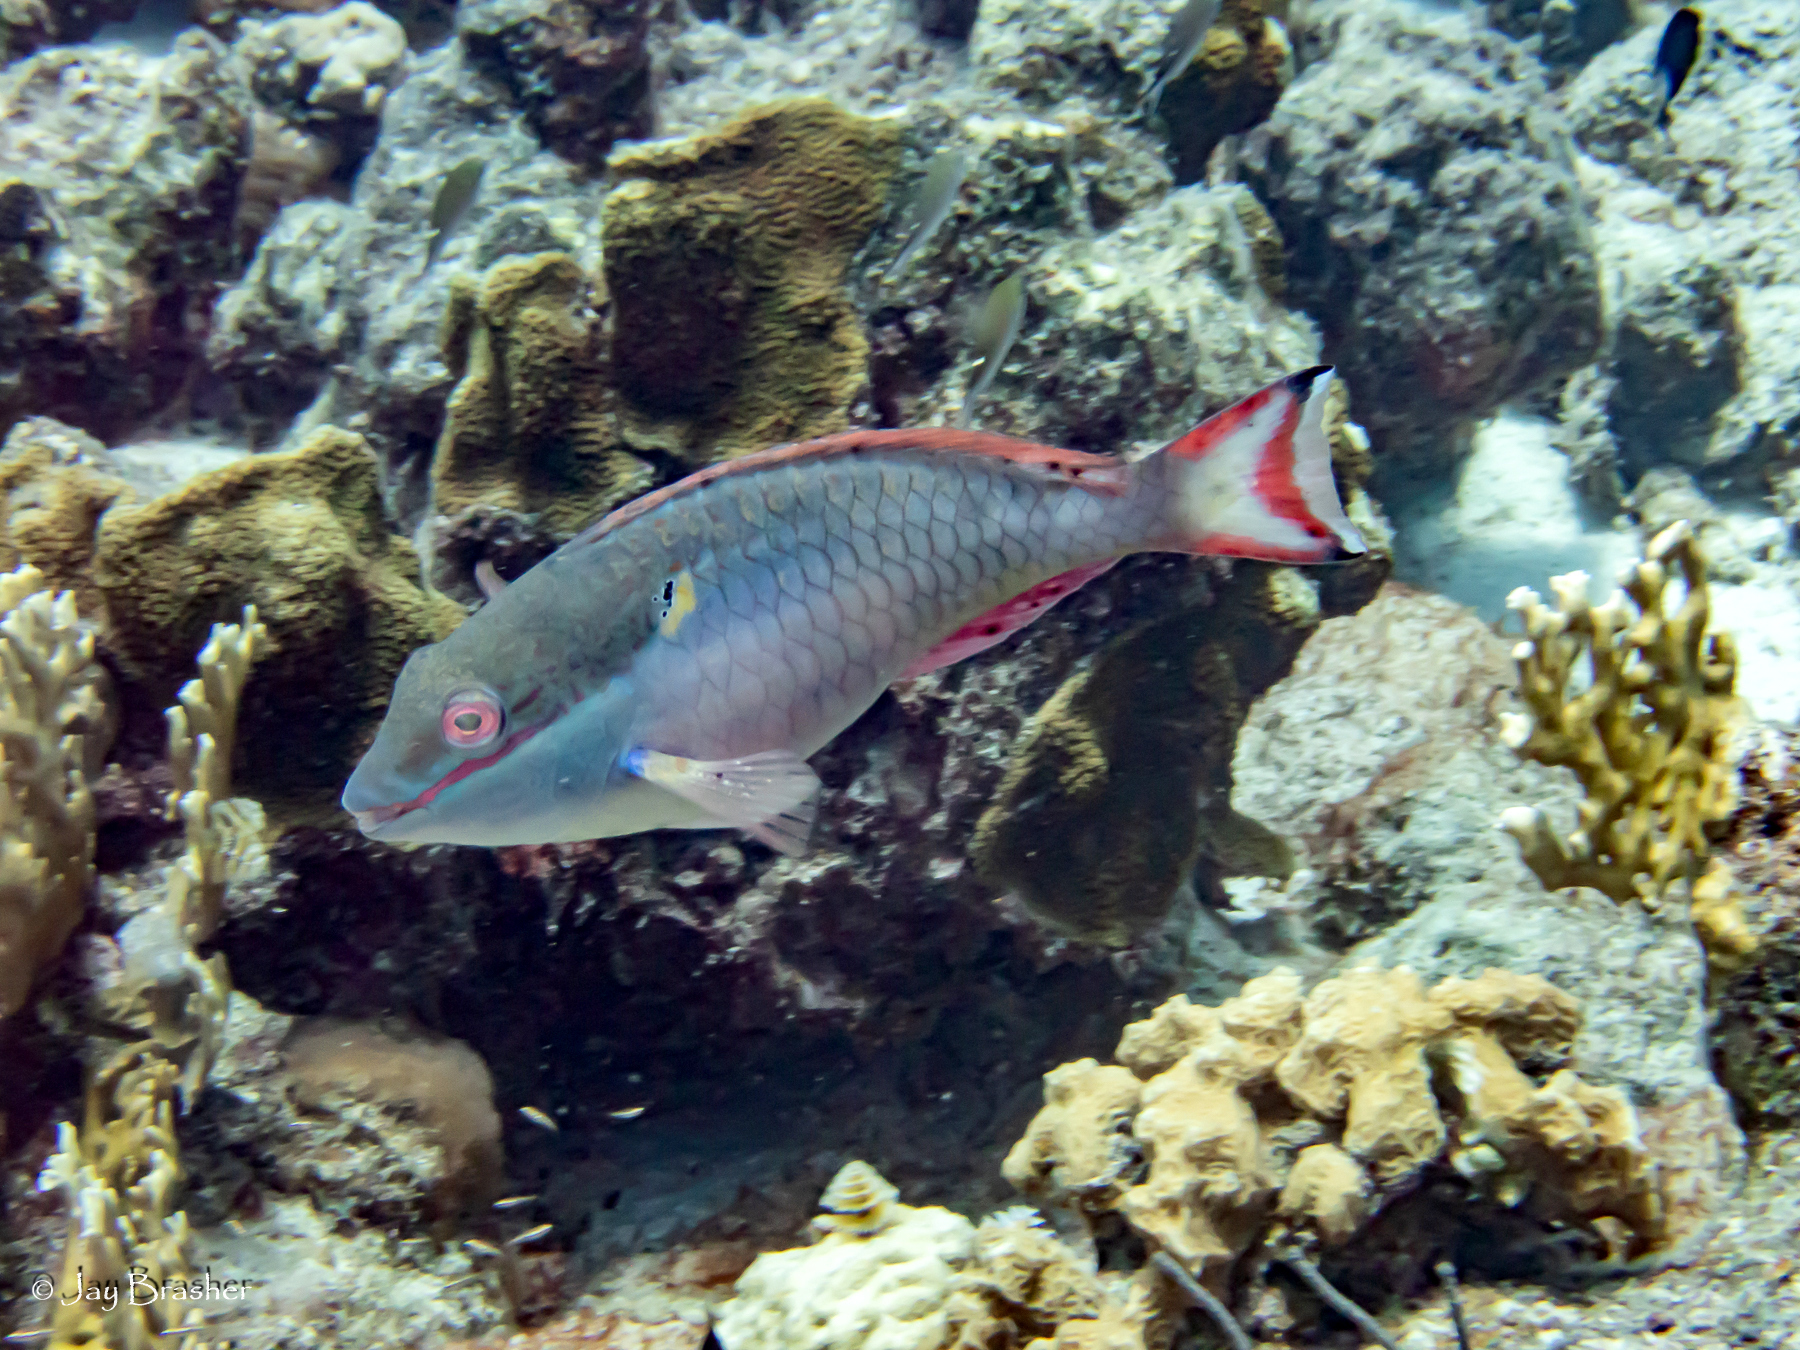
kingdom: Animalia
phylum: Chordata
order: Perciformes
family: Scaridae
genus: Sparisoma
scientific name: Sparisoma aurofrenatum
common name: Redband parrotfish
